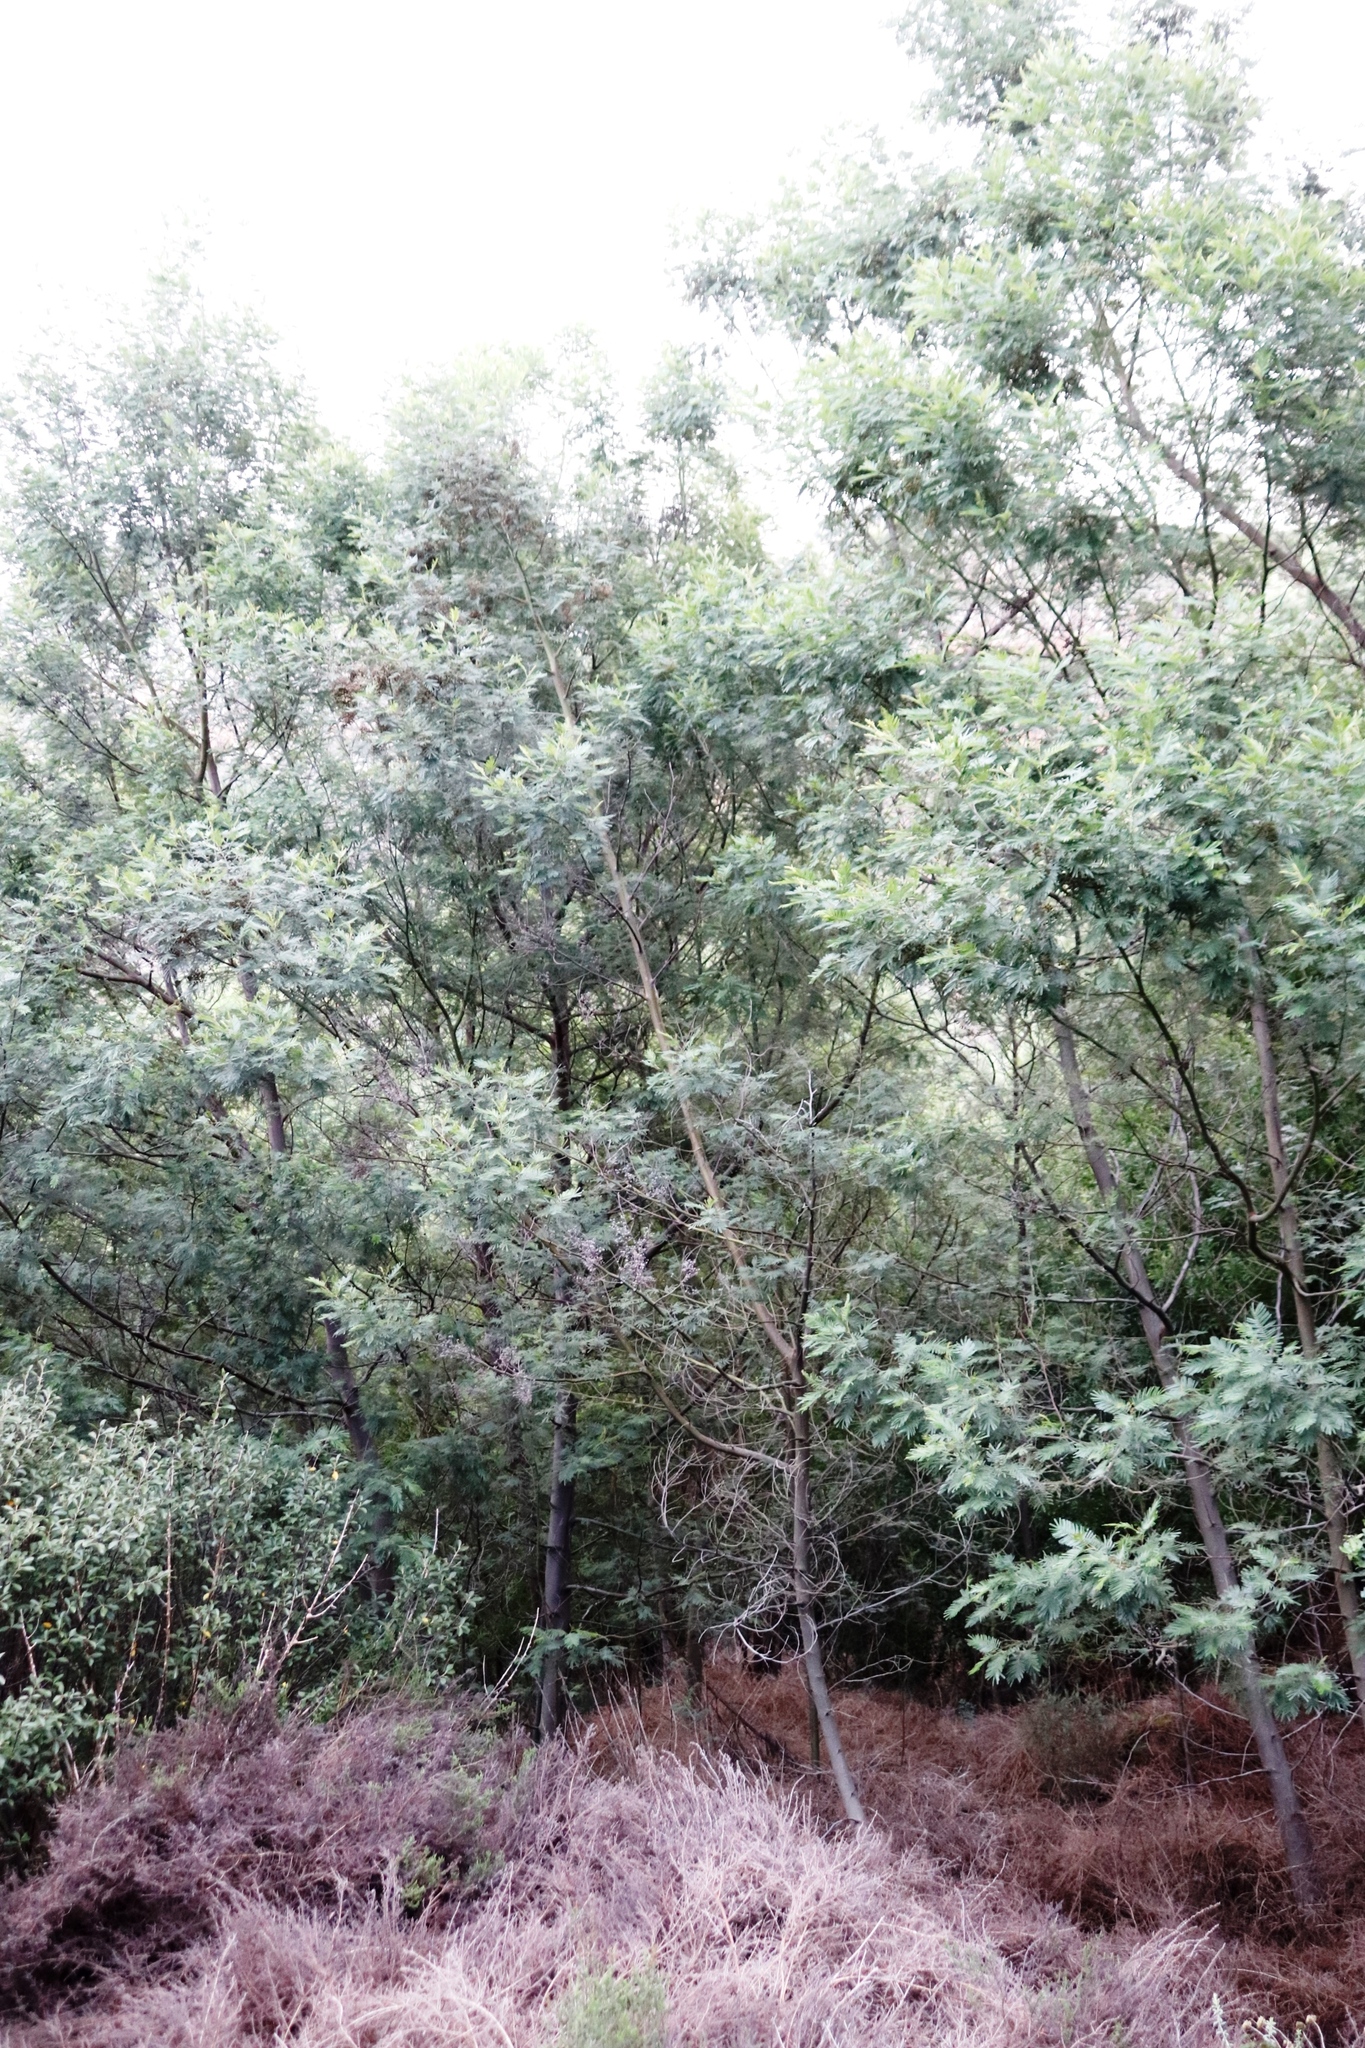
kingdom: Plantae
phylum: Tracheophyta
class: Magnoliopsida
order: Fabales
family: Fabaceae
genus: Acacia
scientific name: Acacia mearnsii
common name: Black wattle
